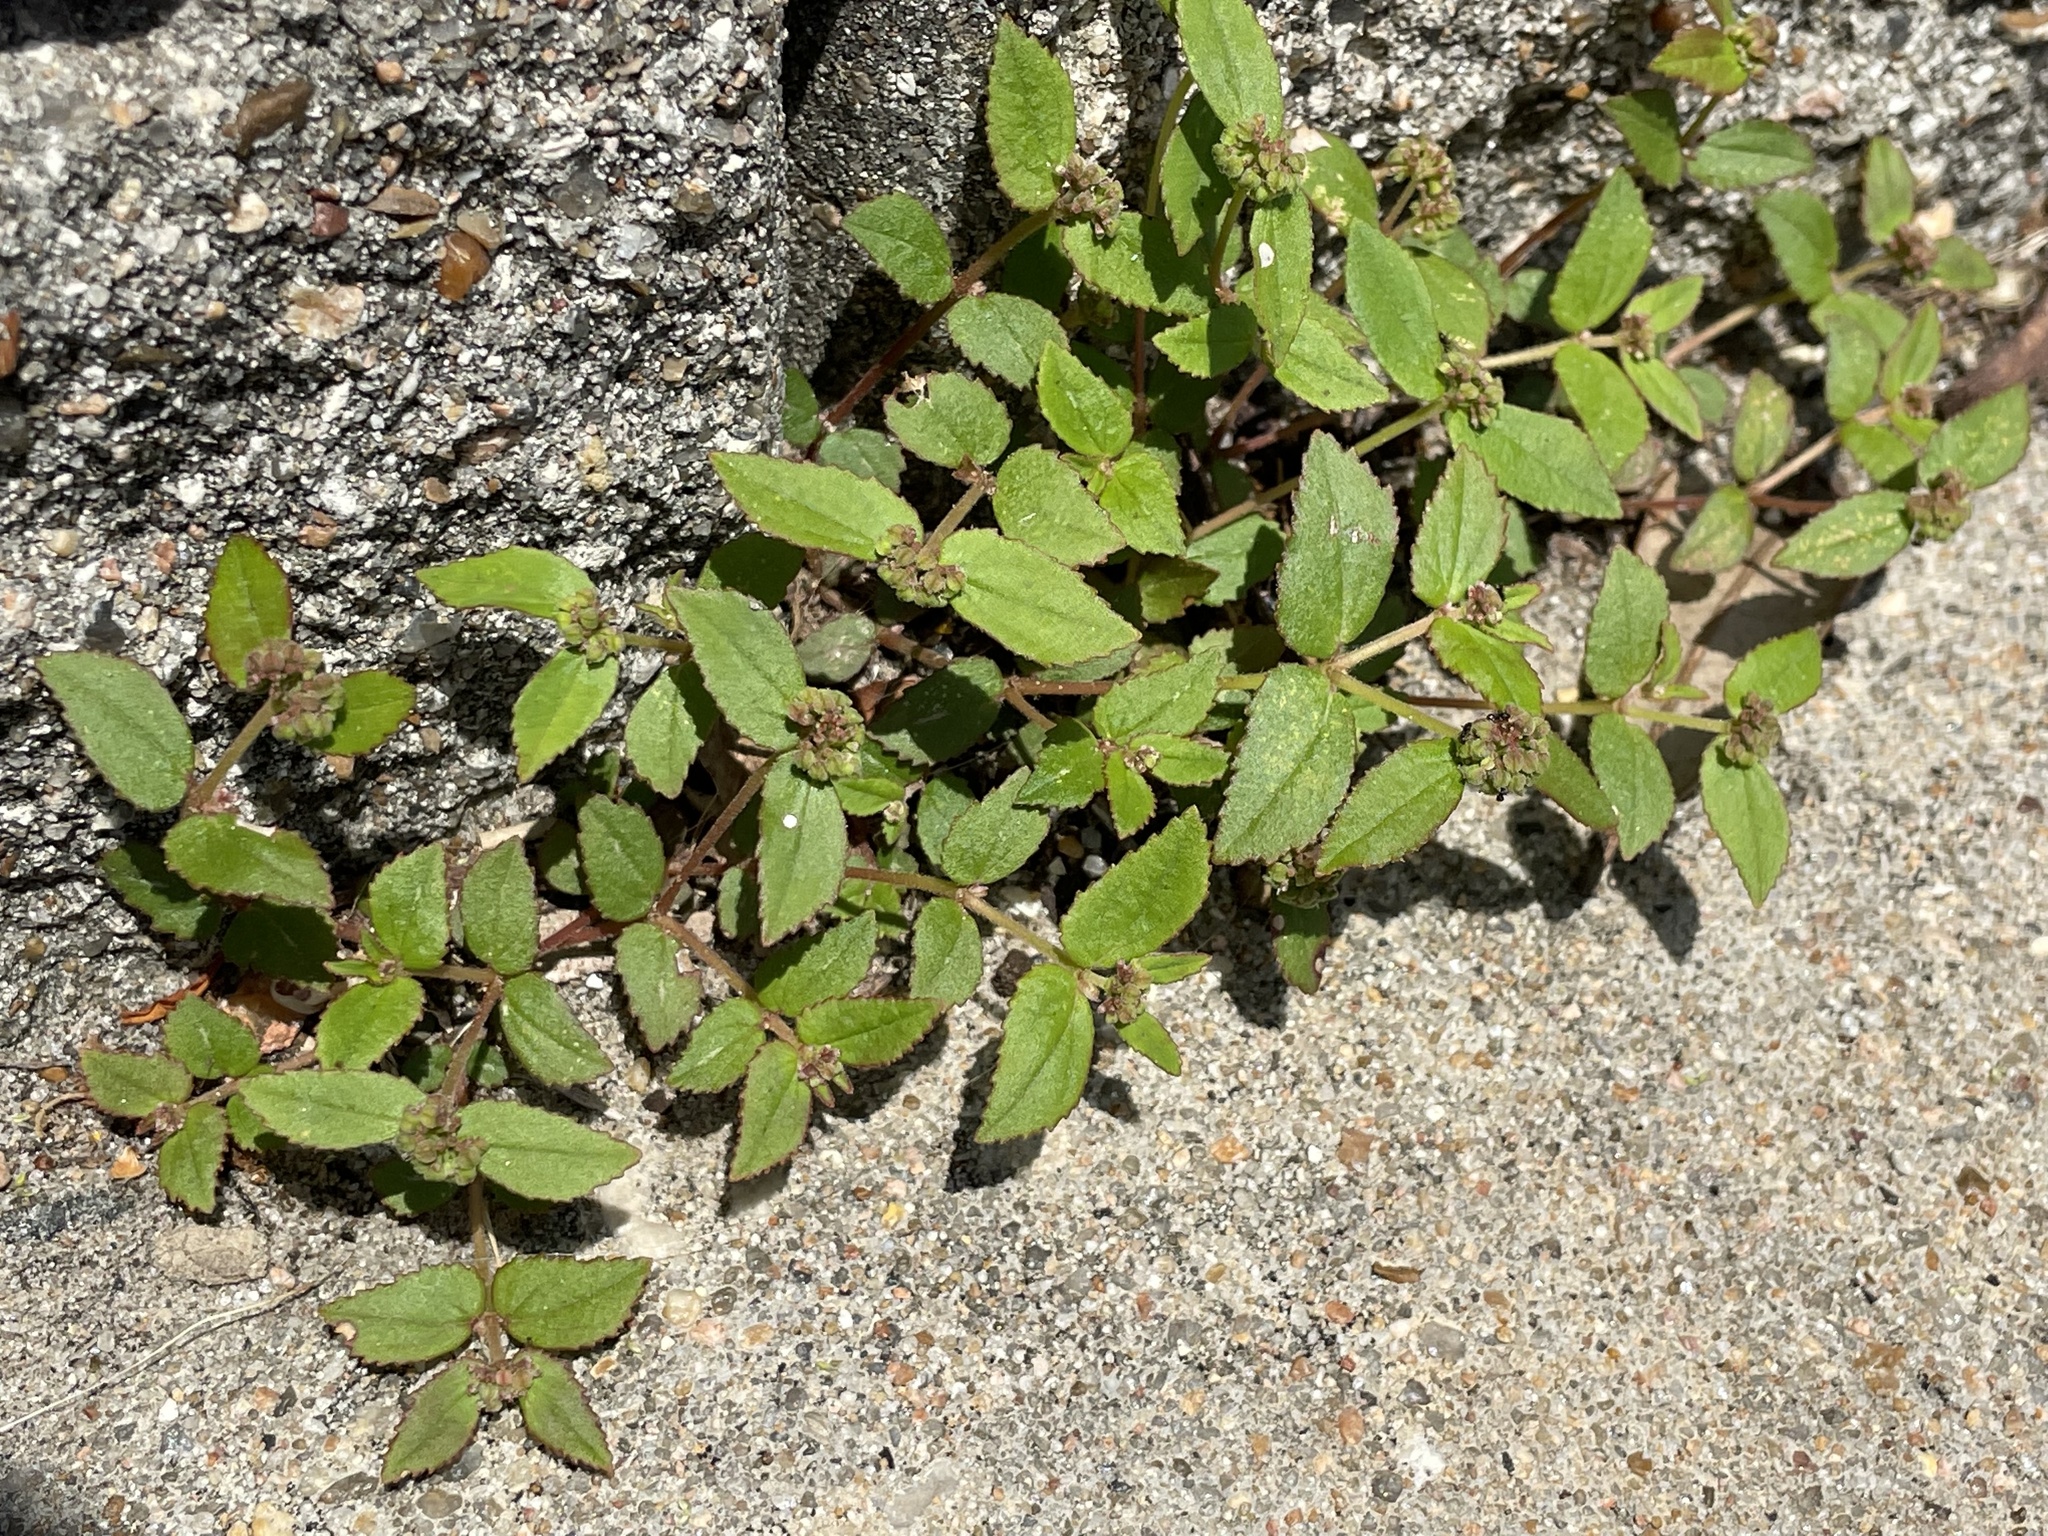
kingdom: Plantae
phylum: Tracheophyta
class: Magnoliopsida
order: Malpighiales
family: Euphorbiaceae
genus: Euphorbia
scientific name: Euphorbia ophthalmica
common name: Florida hammock sandmat
